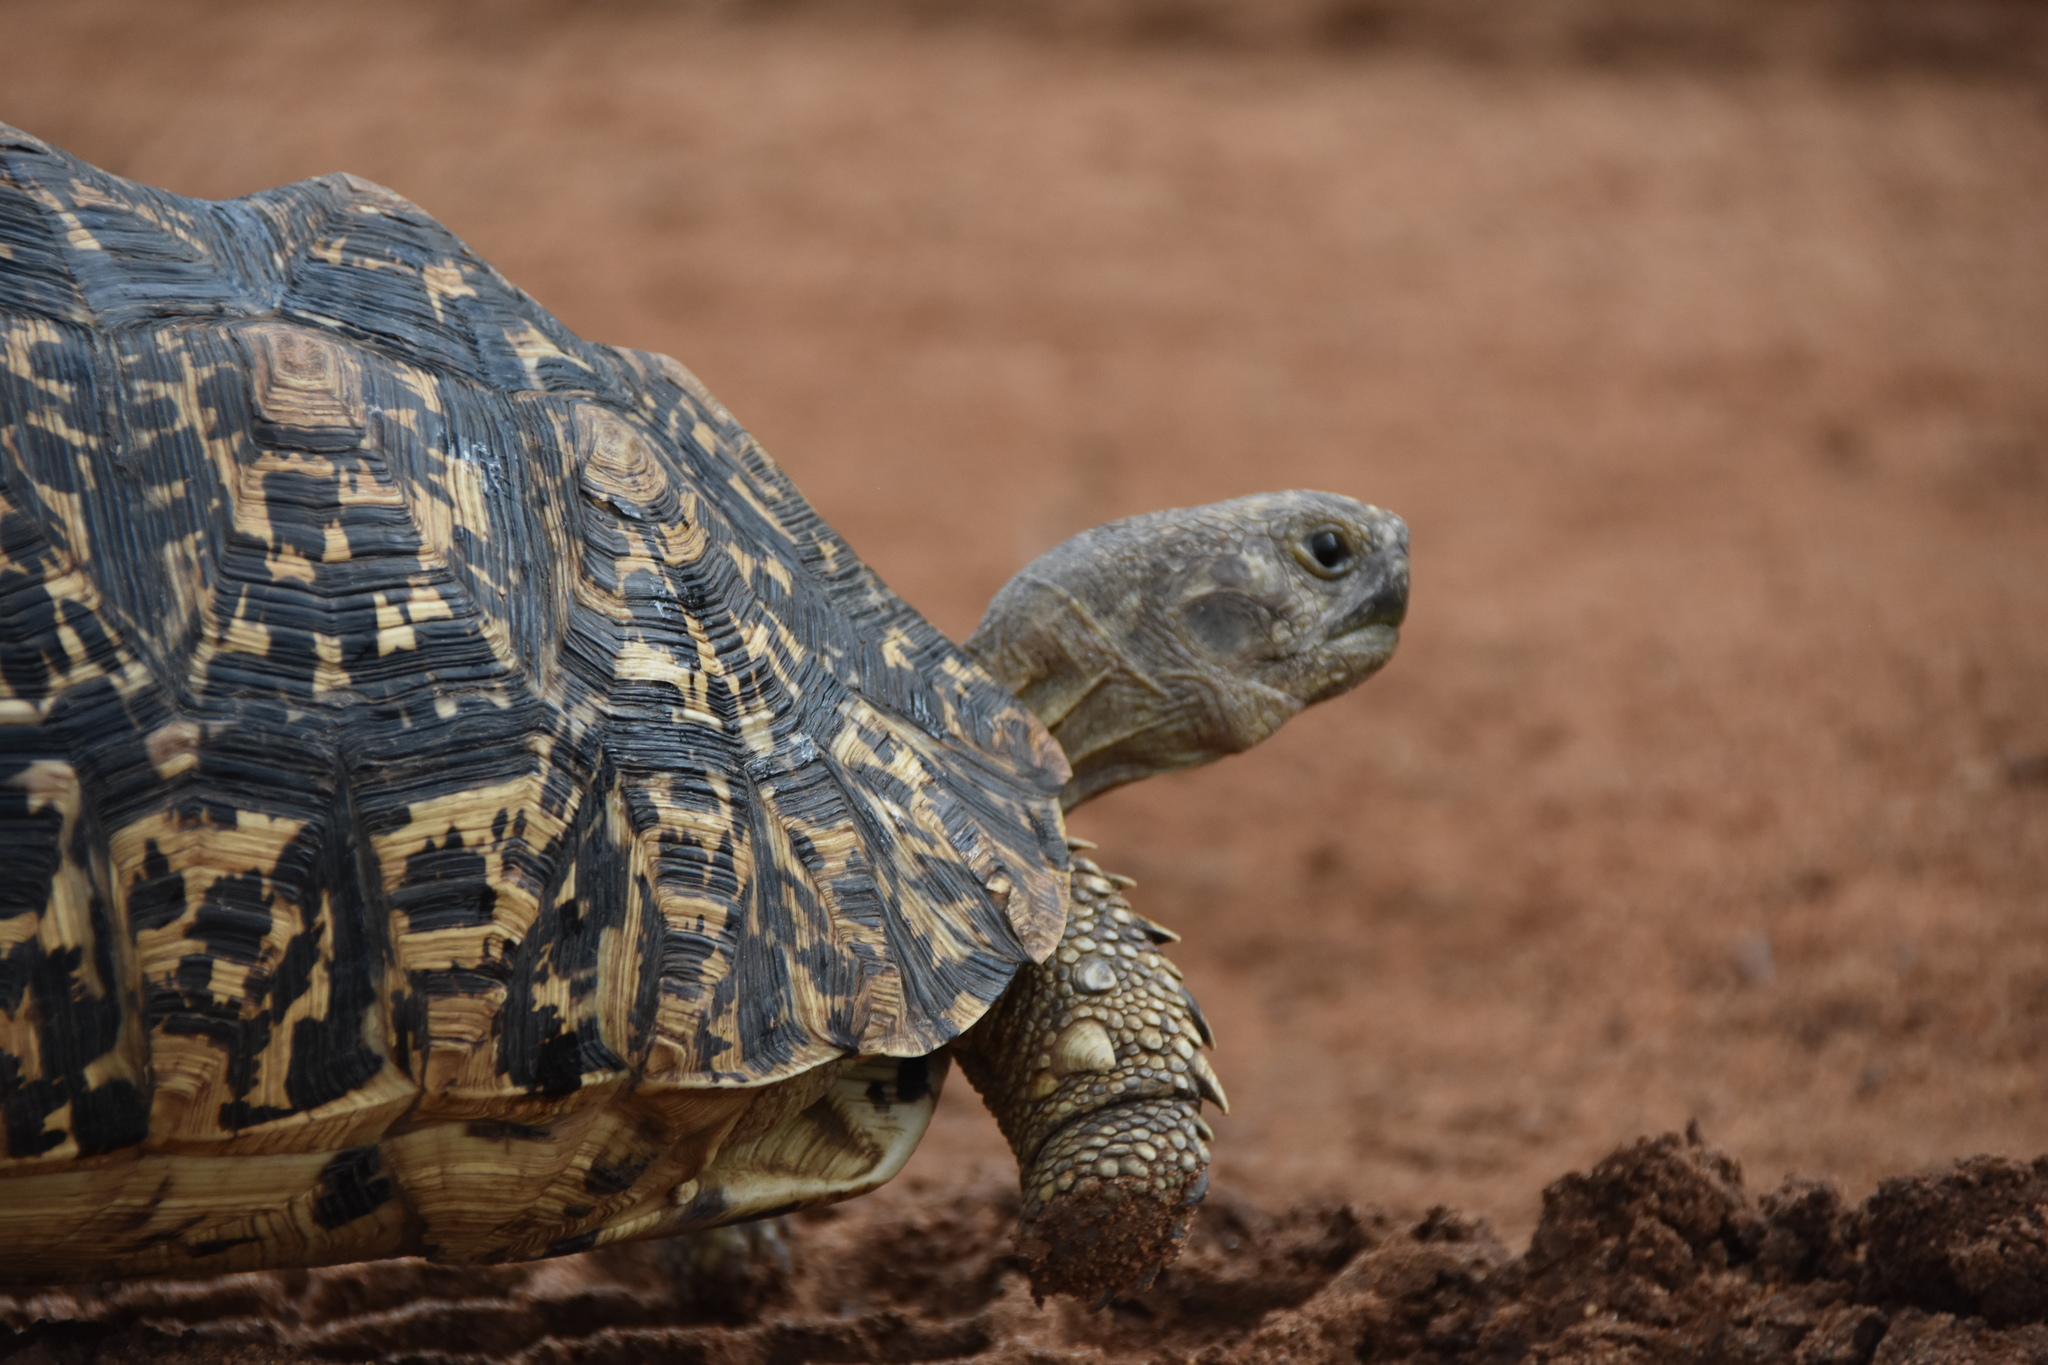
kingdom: Animalia
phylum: Chordata
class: Testudines
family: Testudinidae
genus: Stigmochelys
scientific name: Stigmochelys pardalis
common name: Leopard tortoise
